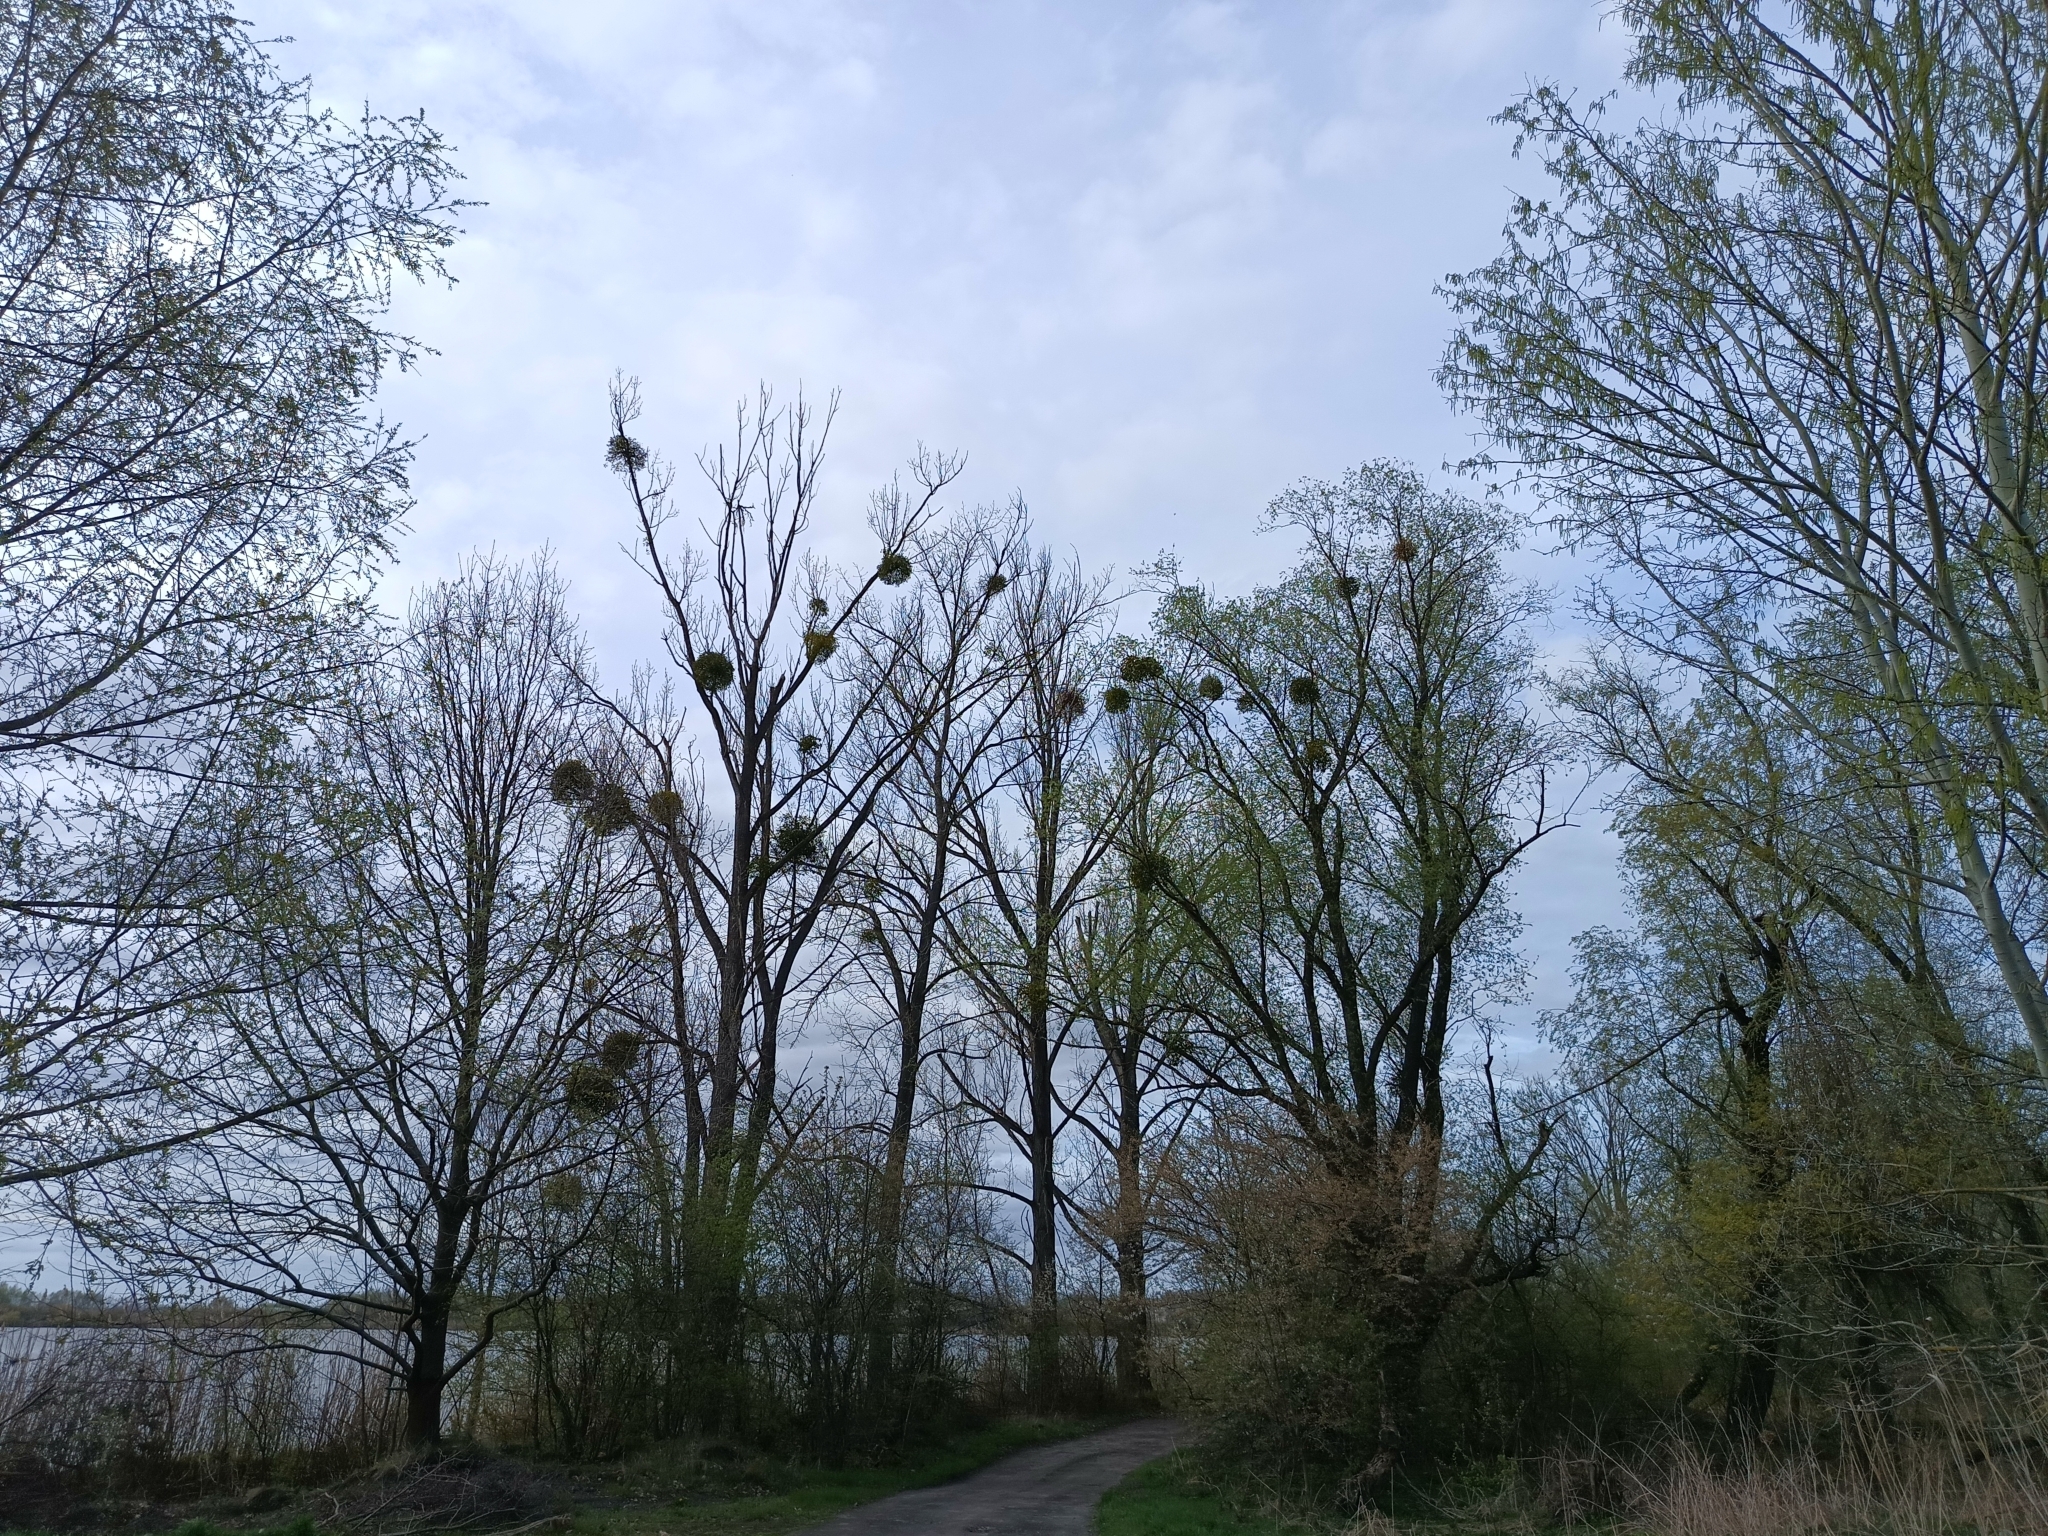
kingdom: Plantae
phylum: Tracheophyta
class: Magnoliopsida
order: Santalales
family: Viscaceae
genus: Viscum
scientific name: Viscum album
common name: Mistletoe
